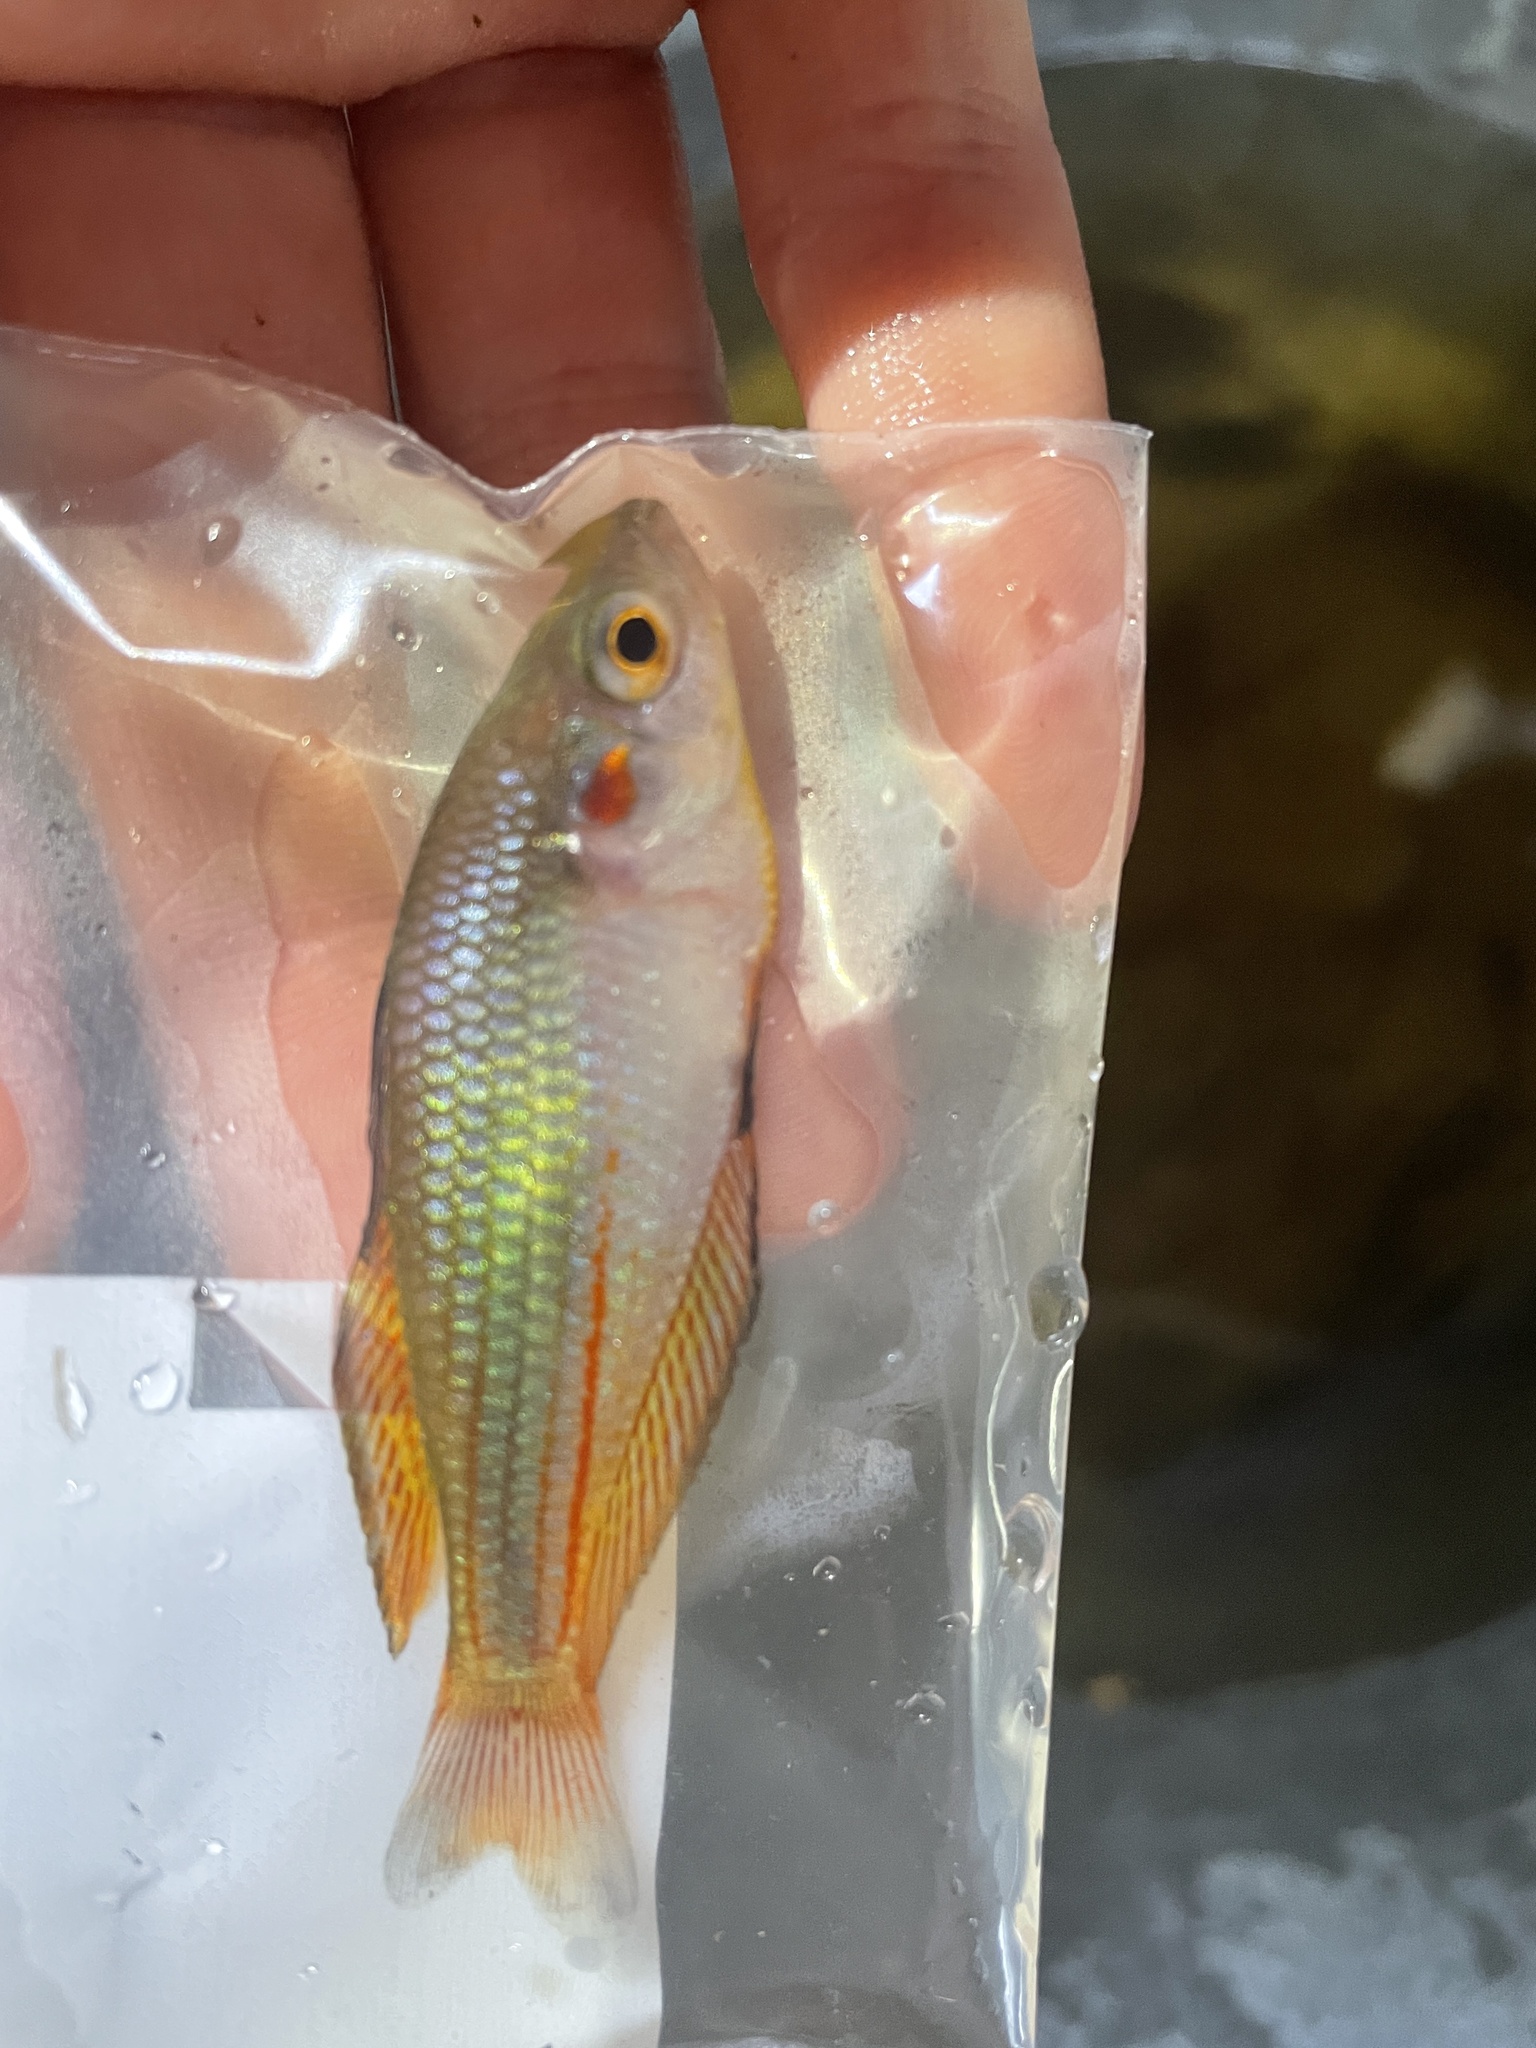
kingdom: Animalia
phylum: Chordata
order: Atheriniformes
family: Melanotaeniidae
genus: Melanotaenia
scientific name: Melanotaenia duboulayi
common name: Crimson-spotted rainbowfish
